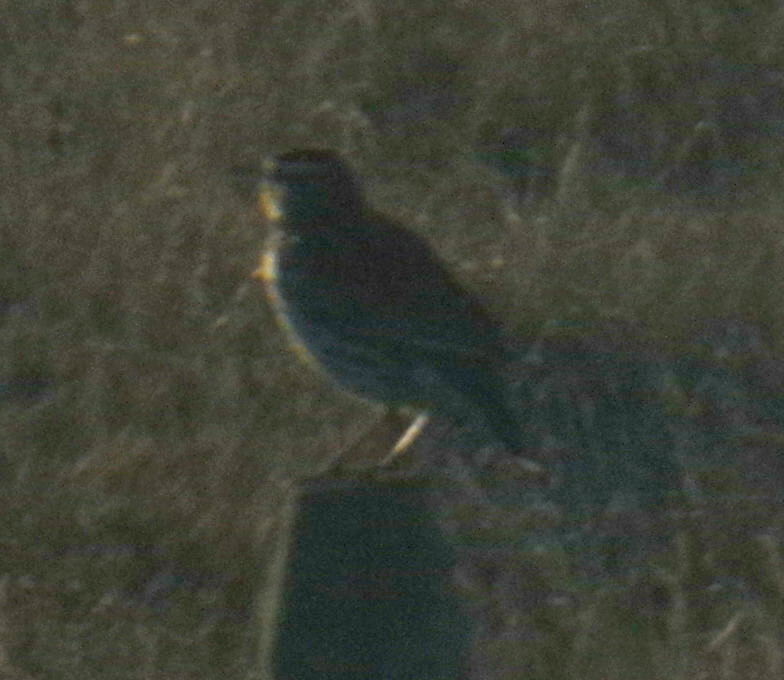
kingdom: Animalia
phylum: Chordata
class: Aves
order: Passeriformes
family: Icteridae
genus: Sturnella
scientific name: Sturnella neglecta
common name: Western meadowlark
